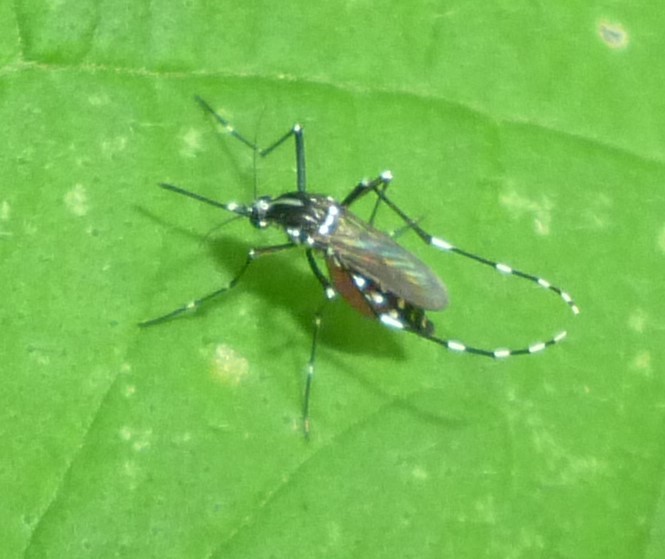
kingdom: Animalia
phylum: Arthropoda
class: Insecta
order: Diptera
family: Culicidae
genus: Aedes
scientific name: Aedes albopictus
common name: Tiger mosquito
